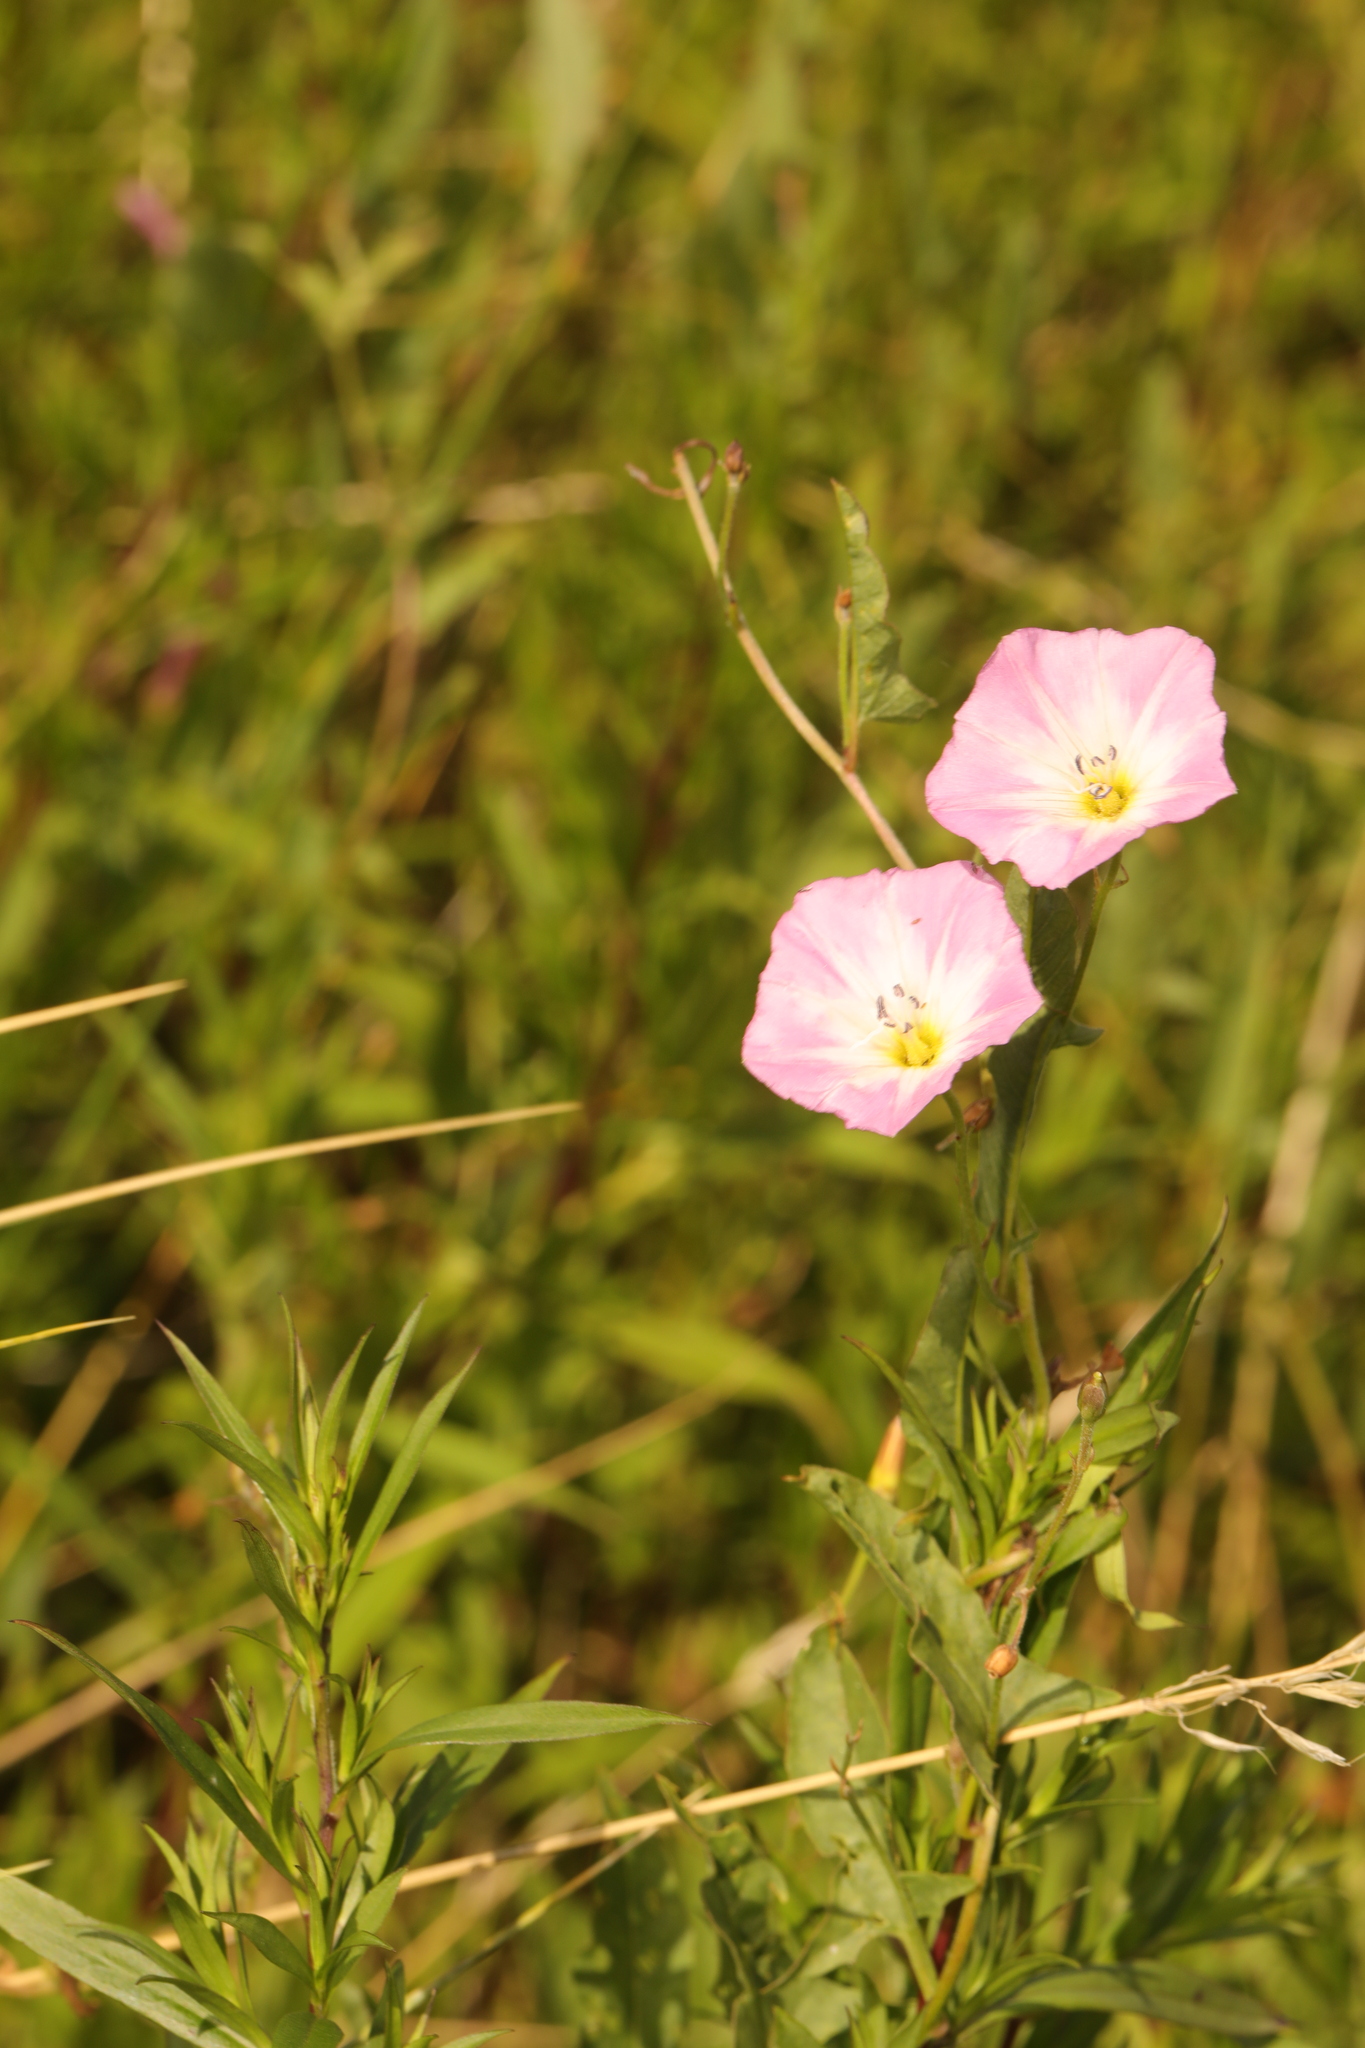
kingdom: Plantae
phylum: Tracheophyta
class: Magnoliopsida
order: Solanales
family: Convolvulaceae
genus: Convolvulus
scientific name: Convolvulus arvensis
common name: Field bindweed
